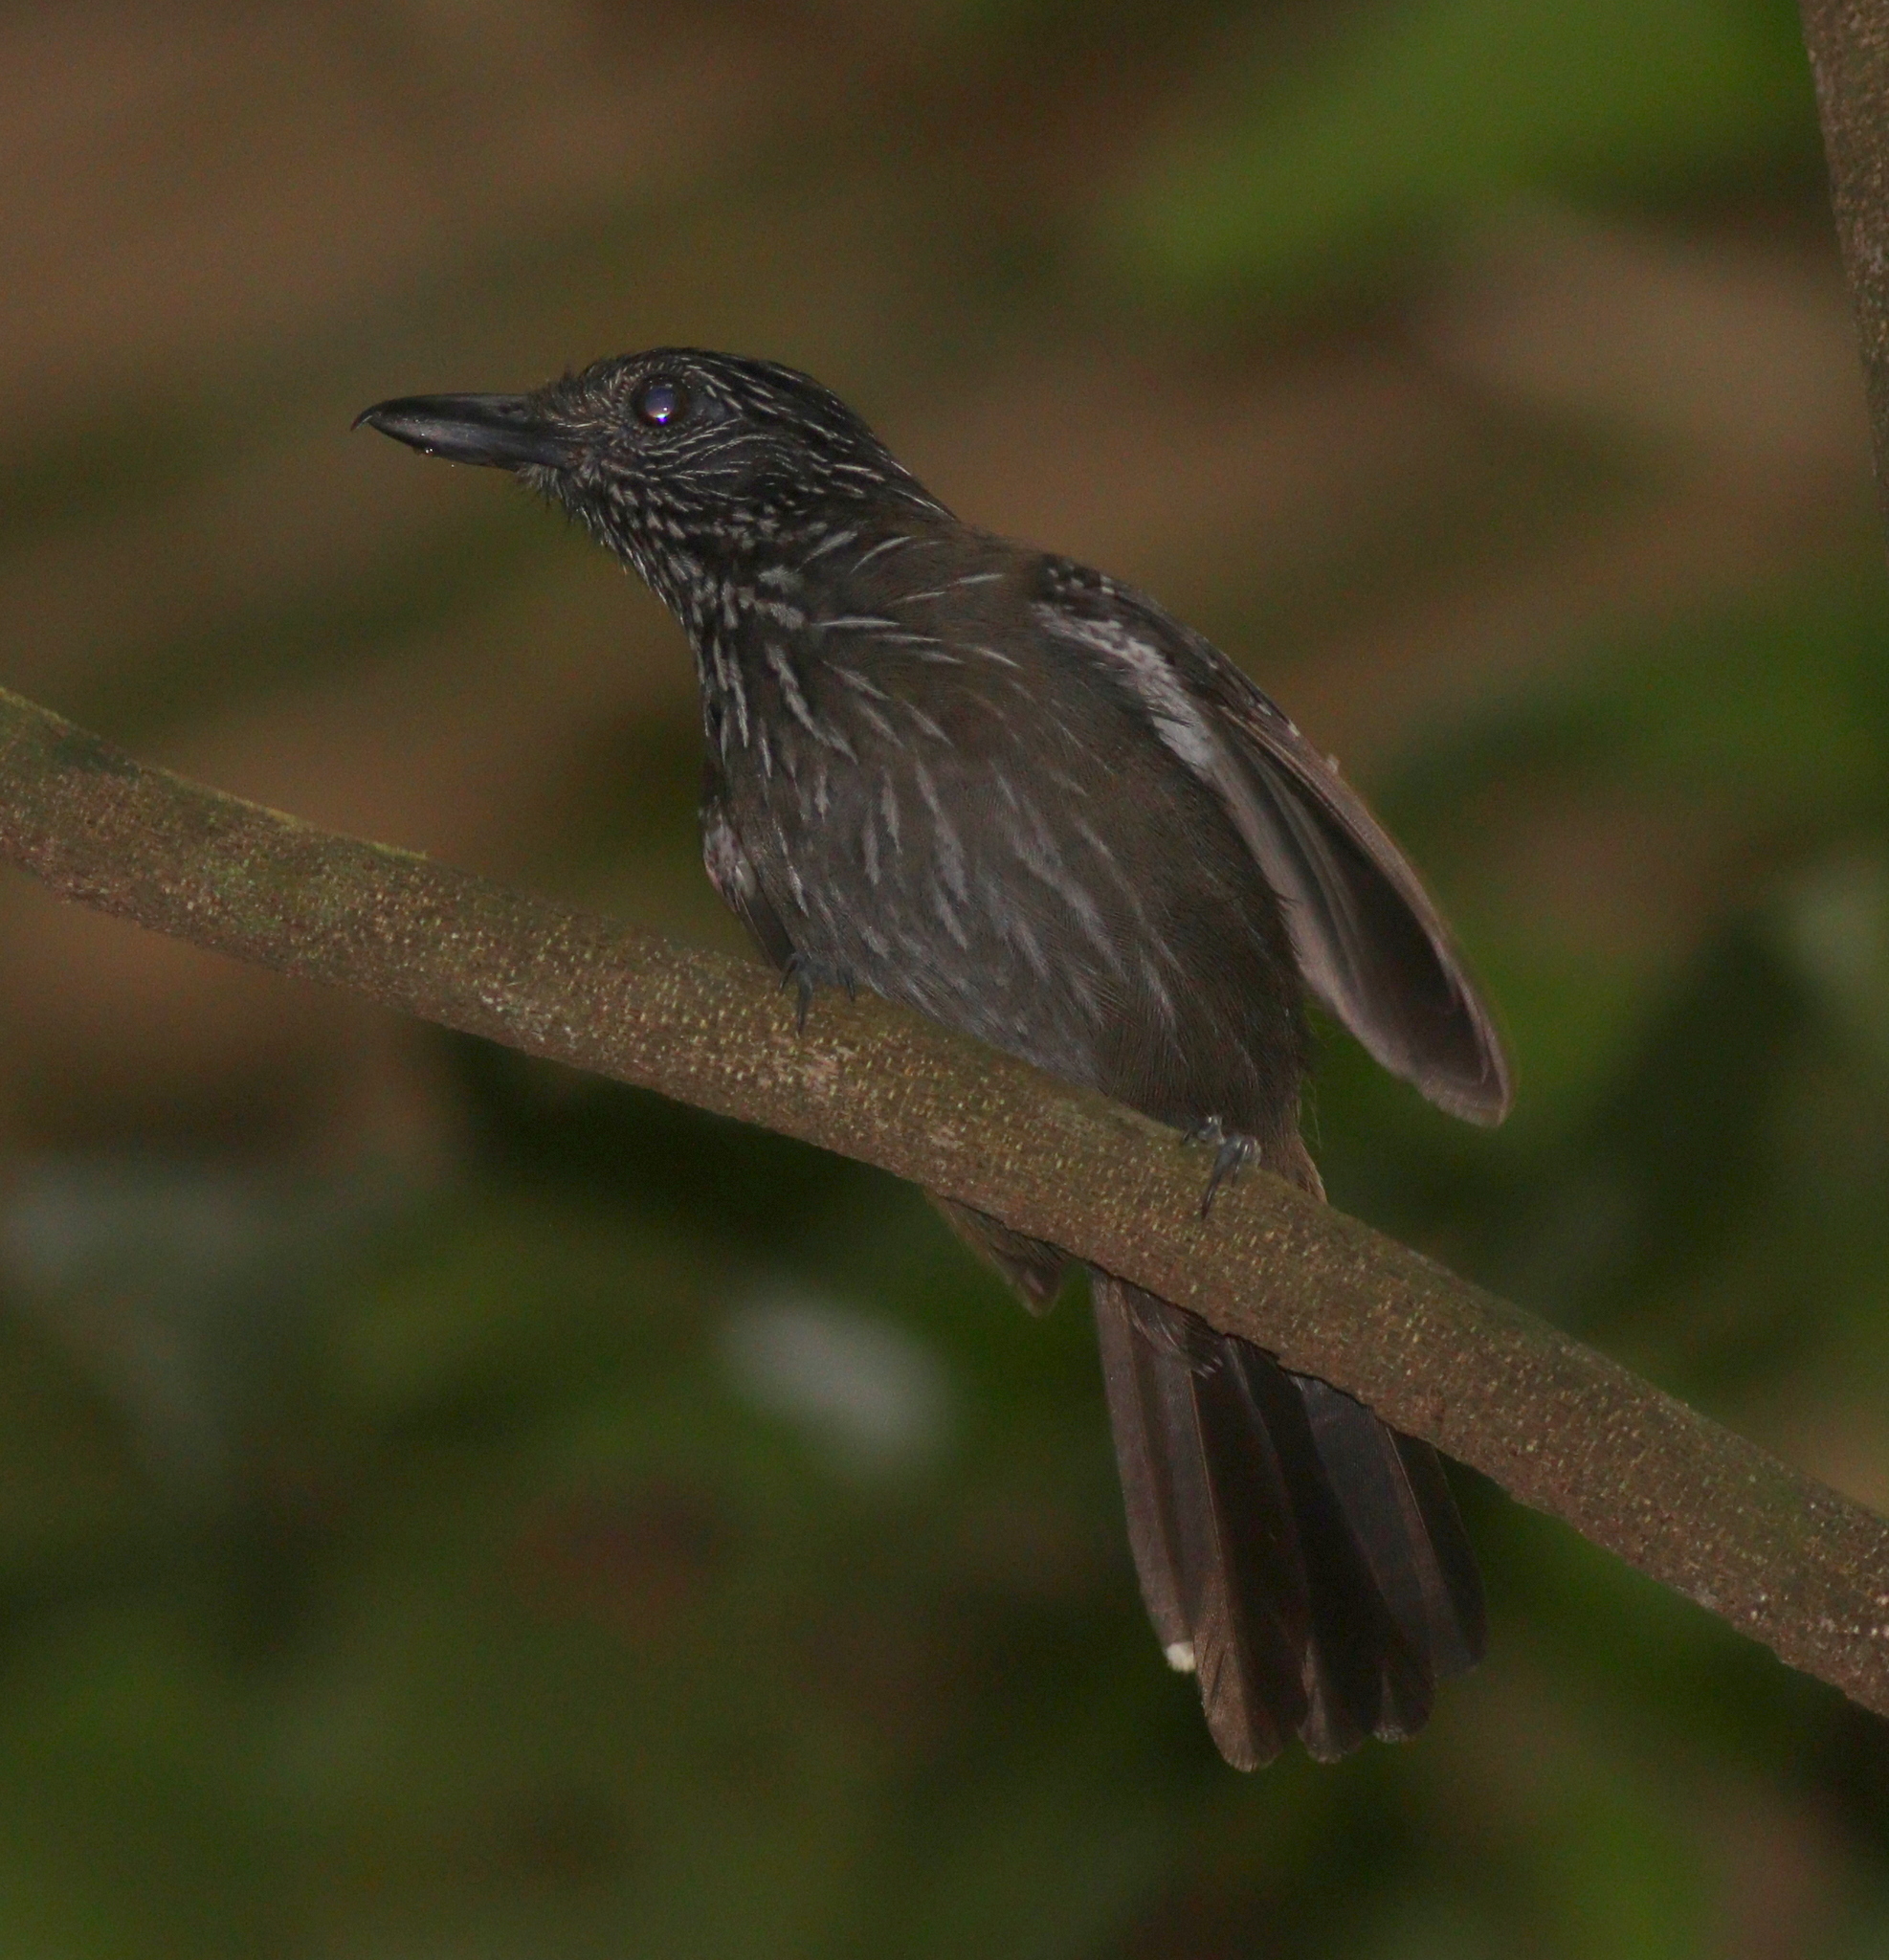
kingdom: Animalia
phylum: Chordata
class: Aves
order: Passeriformes
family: Thamnophilidae
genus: Thamnophilus
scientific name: Thamnophilus bridgesi
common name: Black-hooded antshrike
